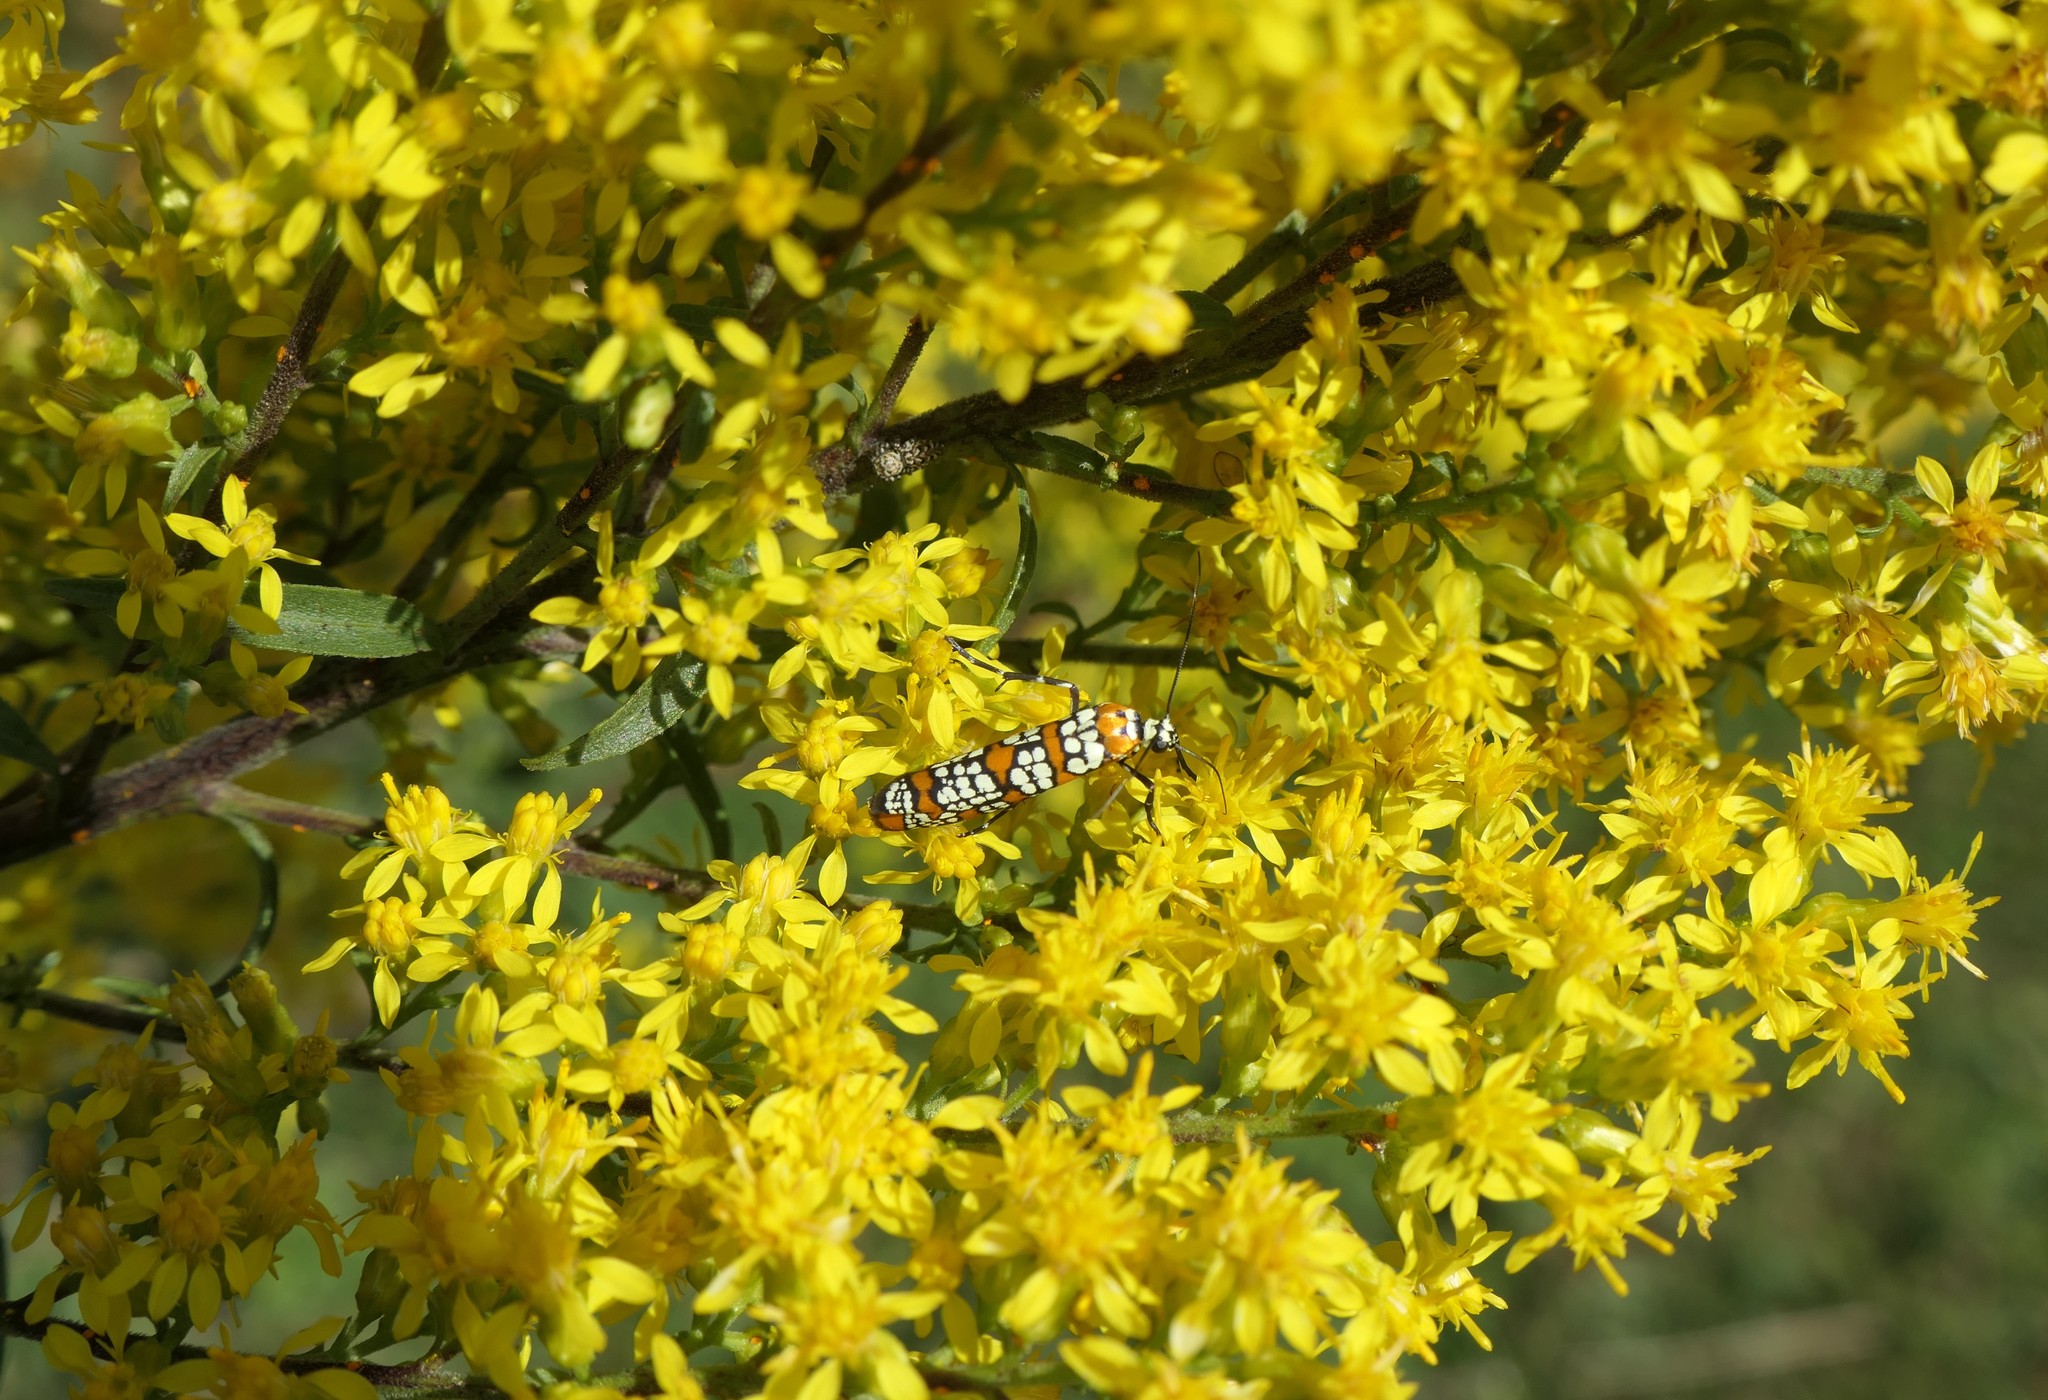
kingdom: Animalia
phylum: Arthropoda
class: Insecta
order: Lepidoptera
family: Attevidae
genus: Atteva
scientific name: Atteva punctella
